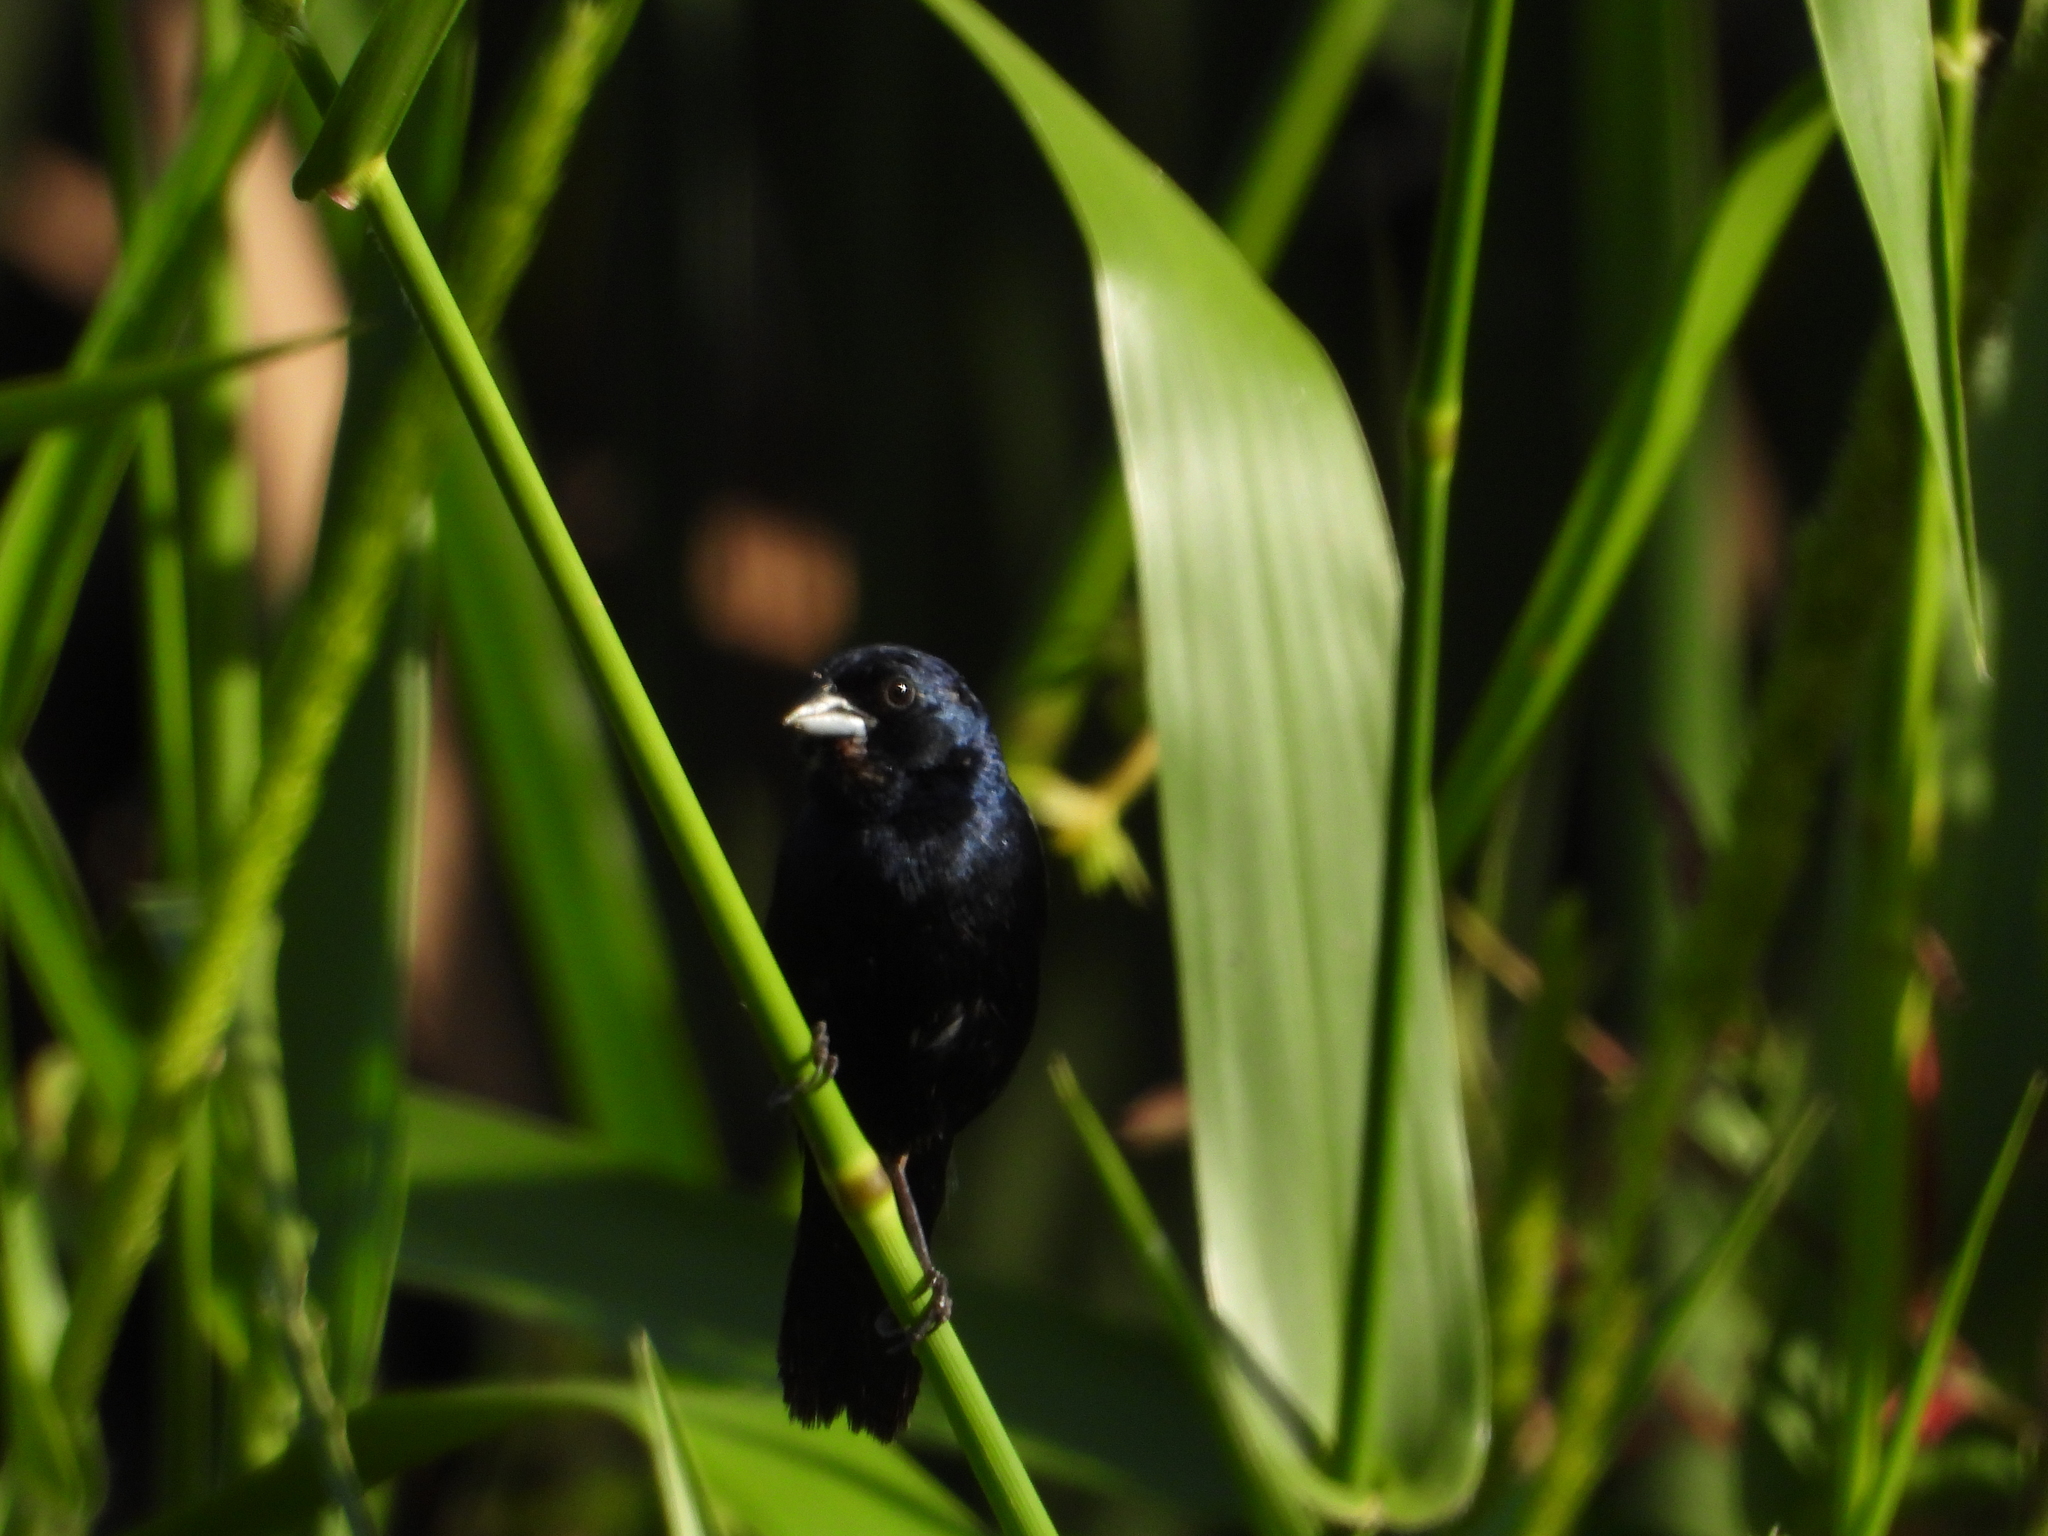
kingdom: Animalia
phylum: Chordata
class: Aves
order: Passeriformes
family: Thraupidae
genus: Volatinia
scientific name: Volatinia jacarina
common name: Blue-black grassquit
